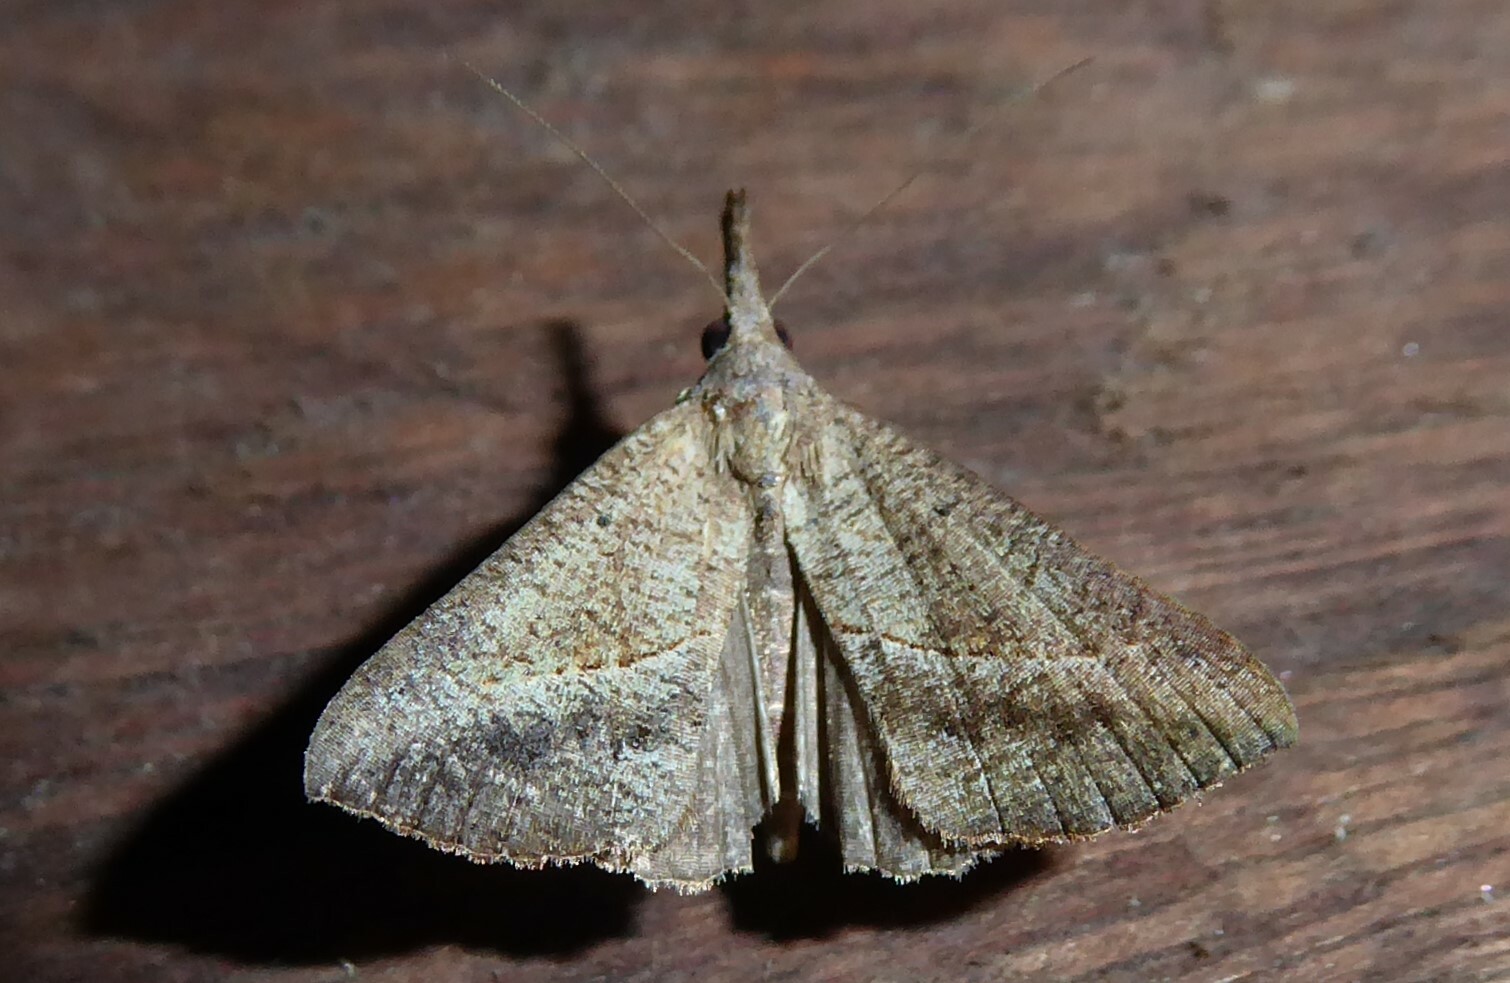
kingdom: Animalia
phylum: Arthropoda
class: Insecta
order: Lepidoptera
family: Erebidae
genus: Hypena
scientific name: Hypena lividalis
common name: Chevron snout
